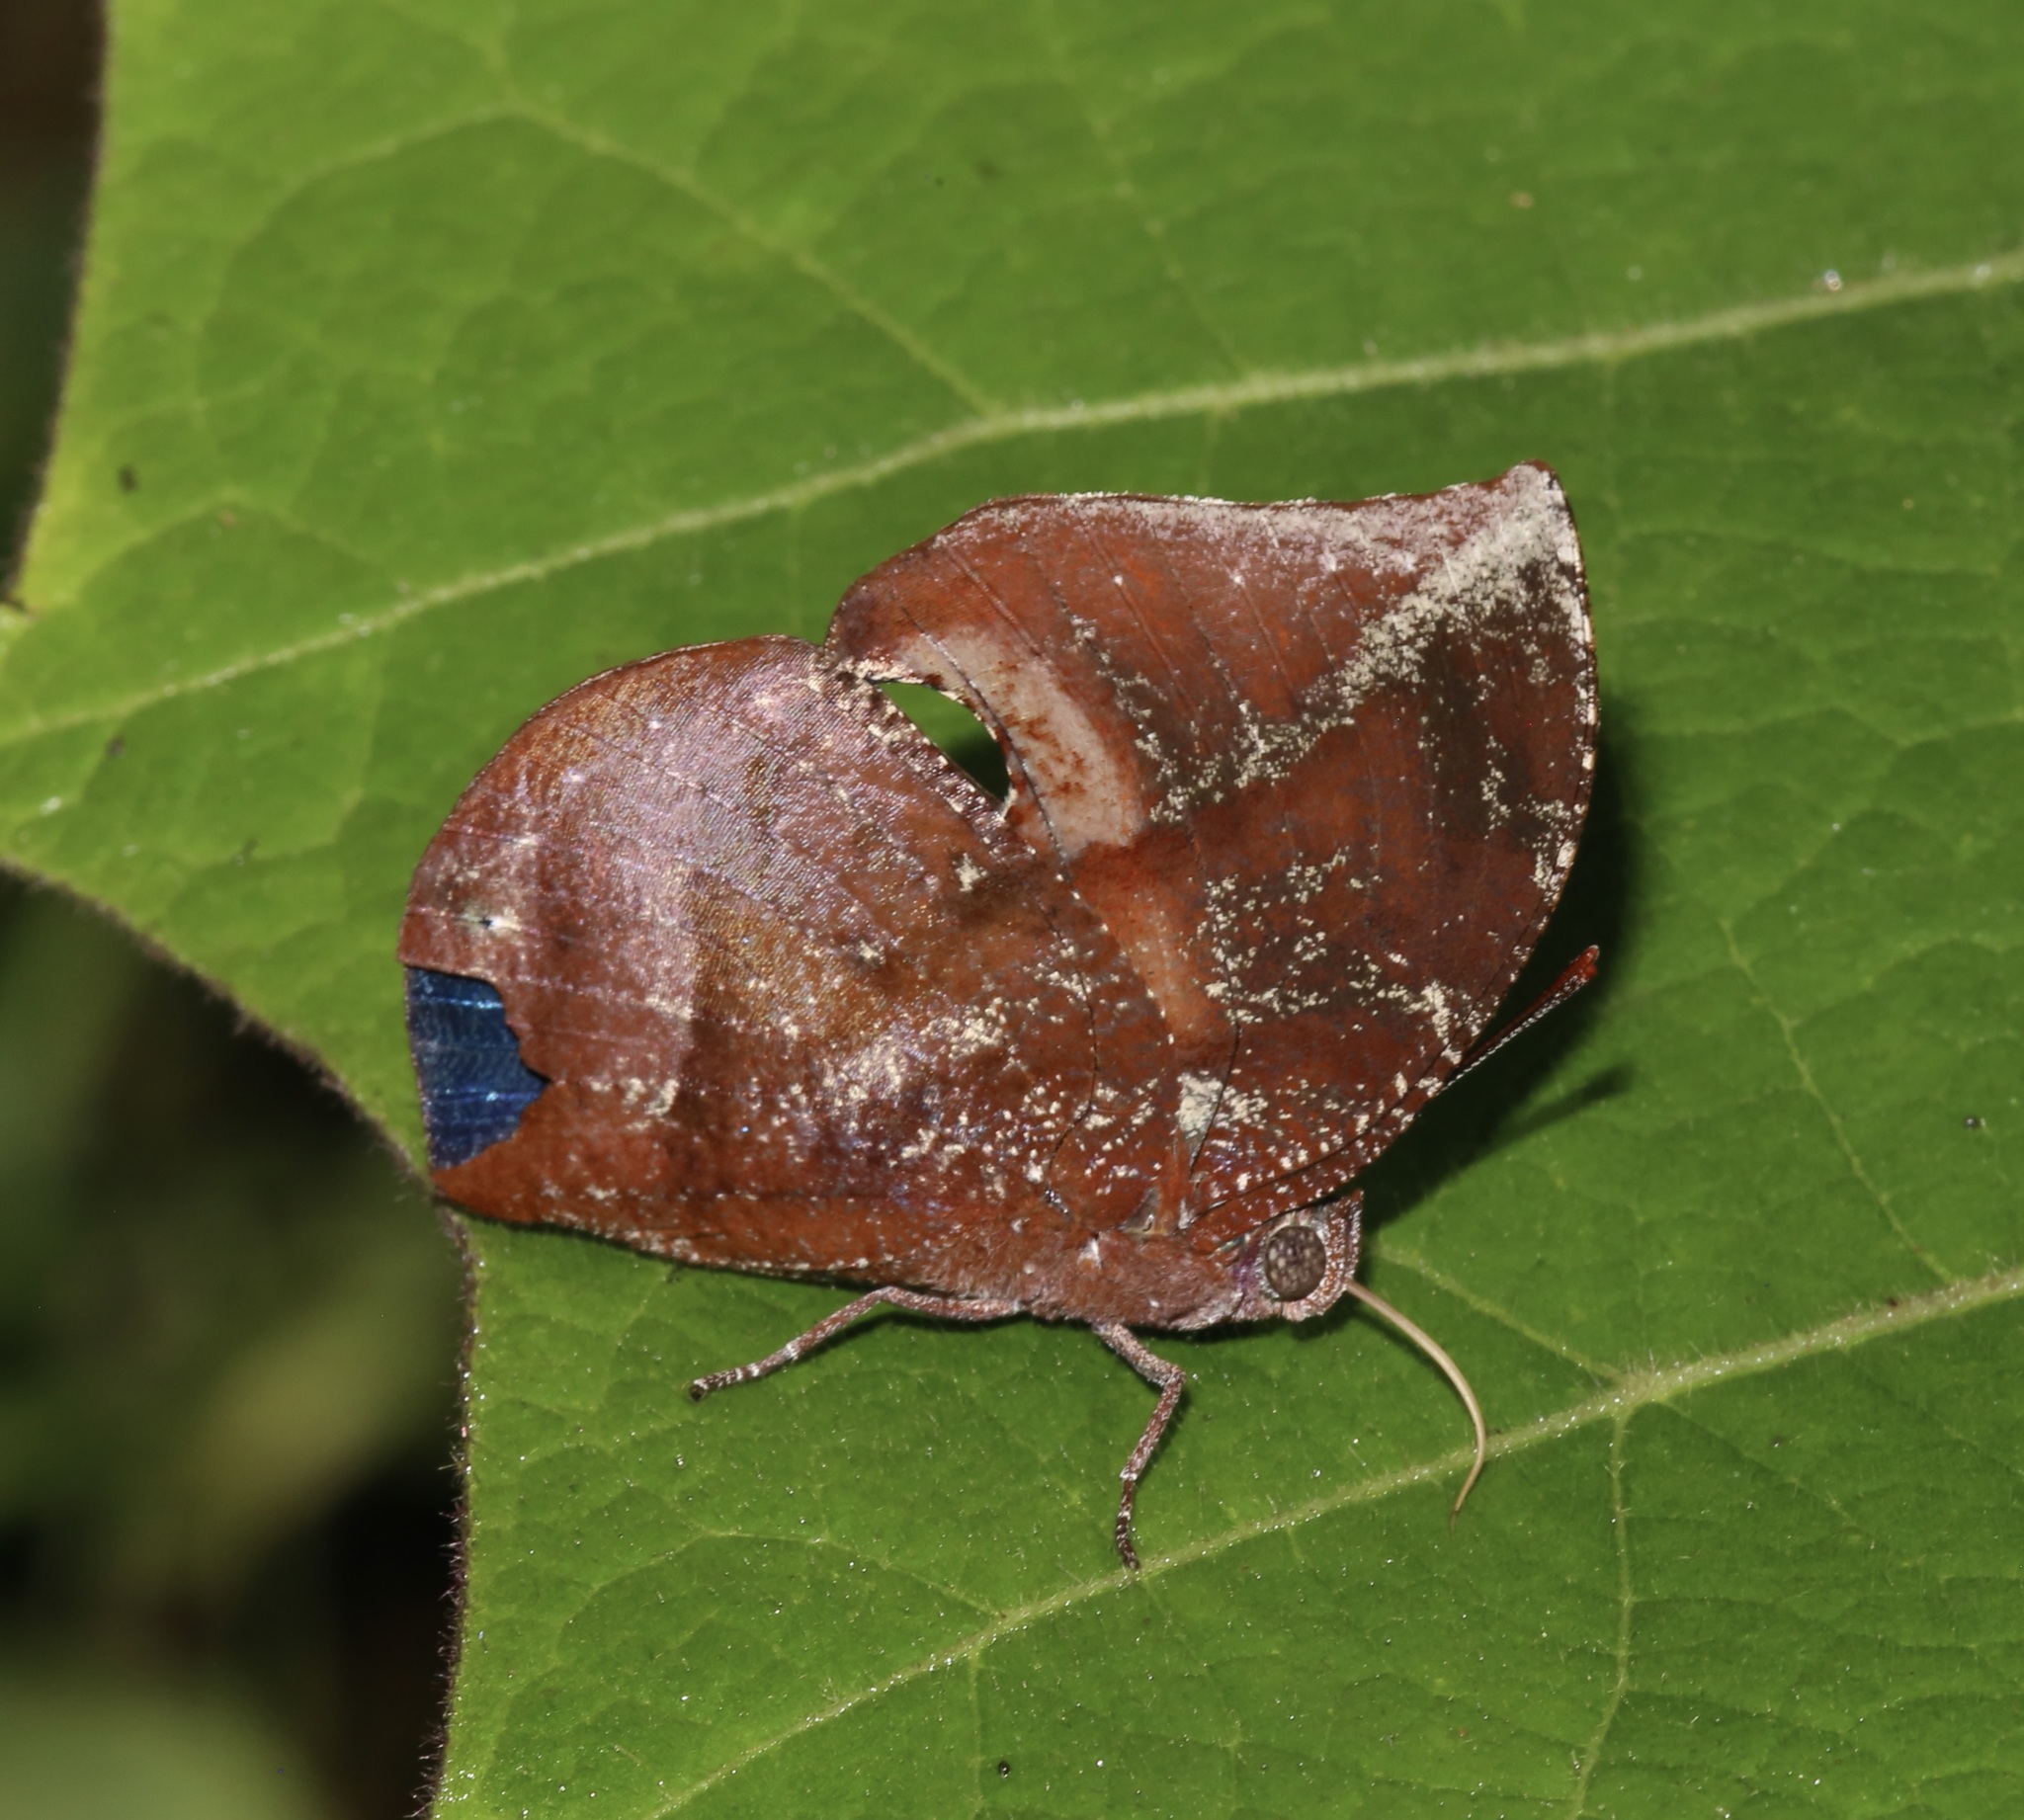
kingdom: Animalia
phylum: Arthropoda
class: Insecta
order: Lepidoptera
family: Nymphalidae
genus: Memphis
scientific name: Memphis lyceus
